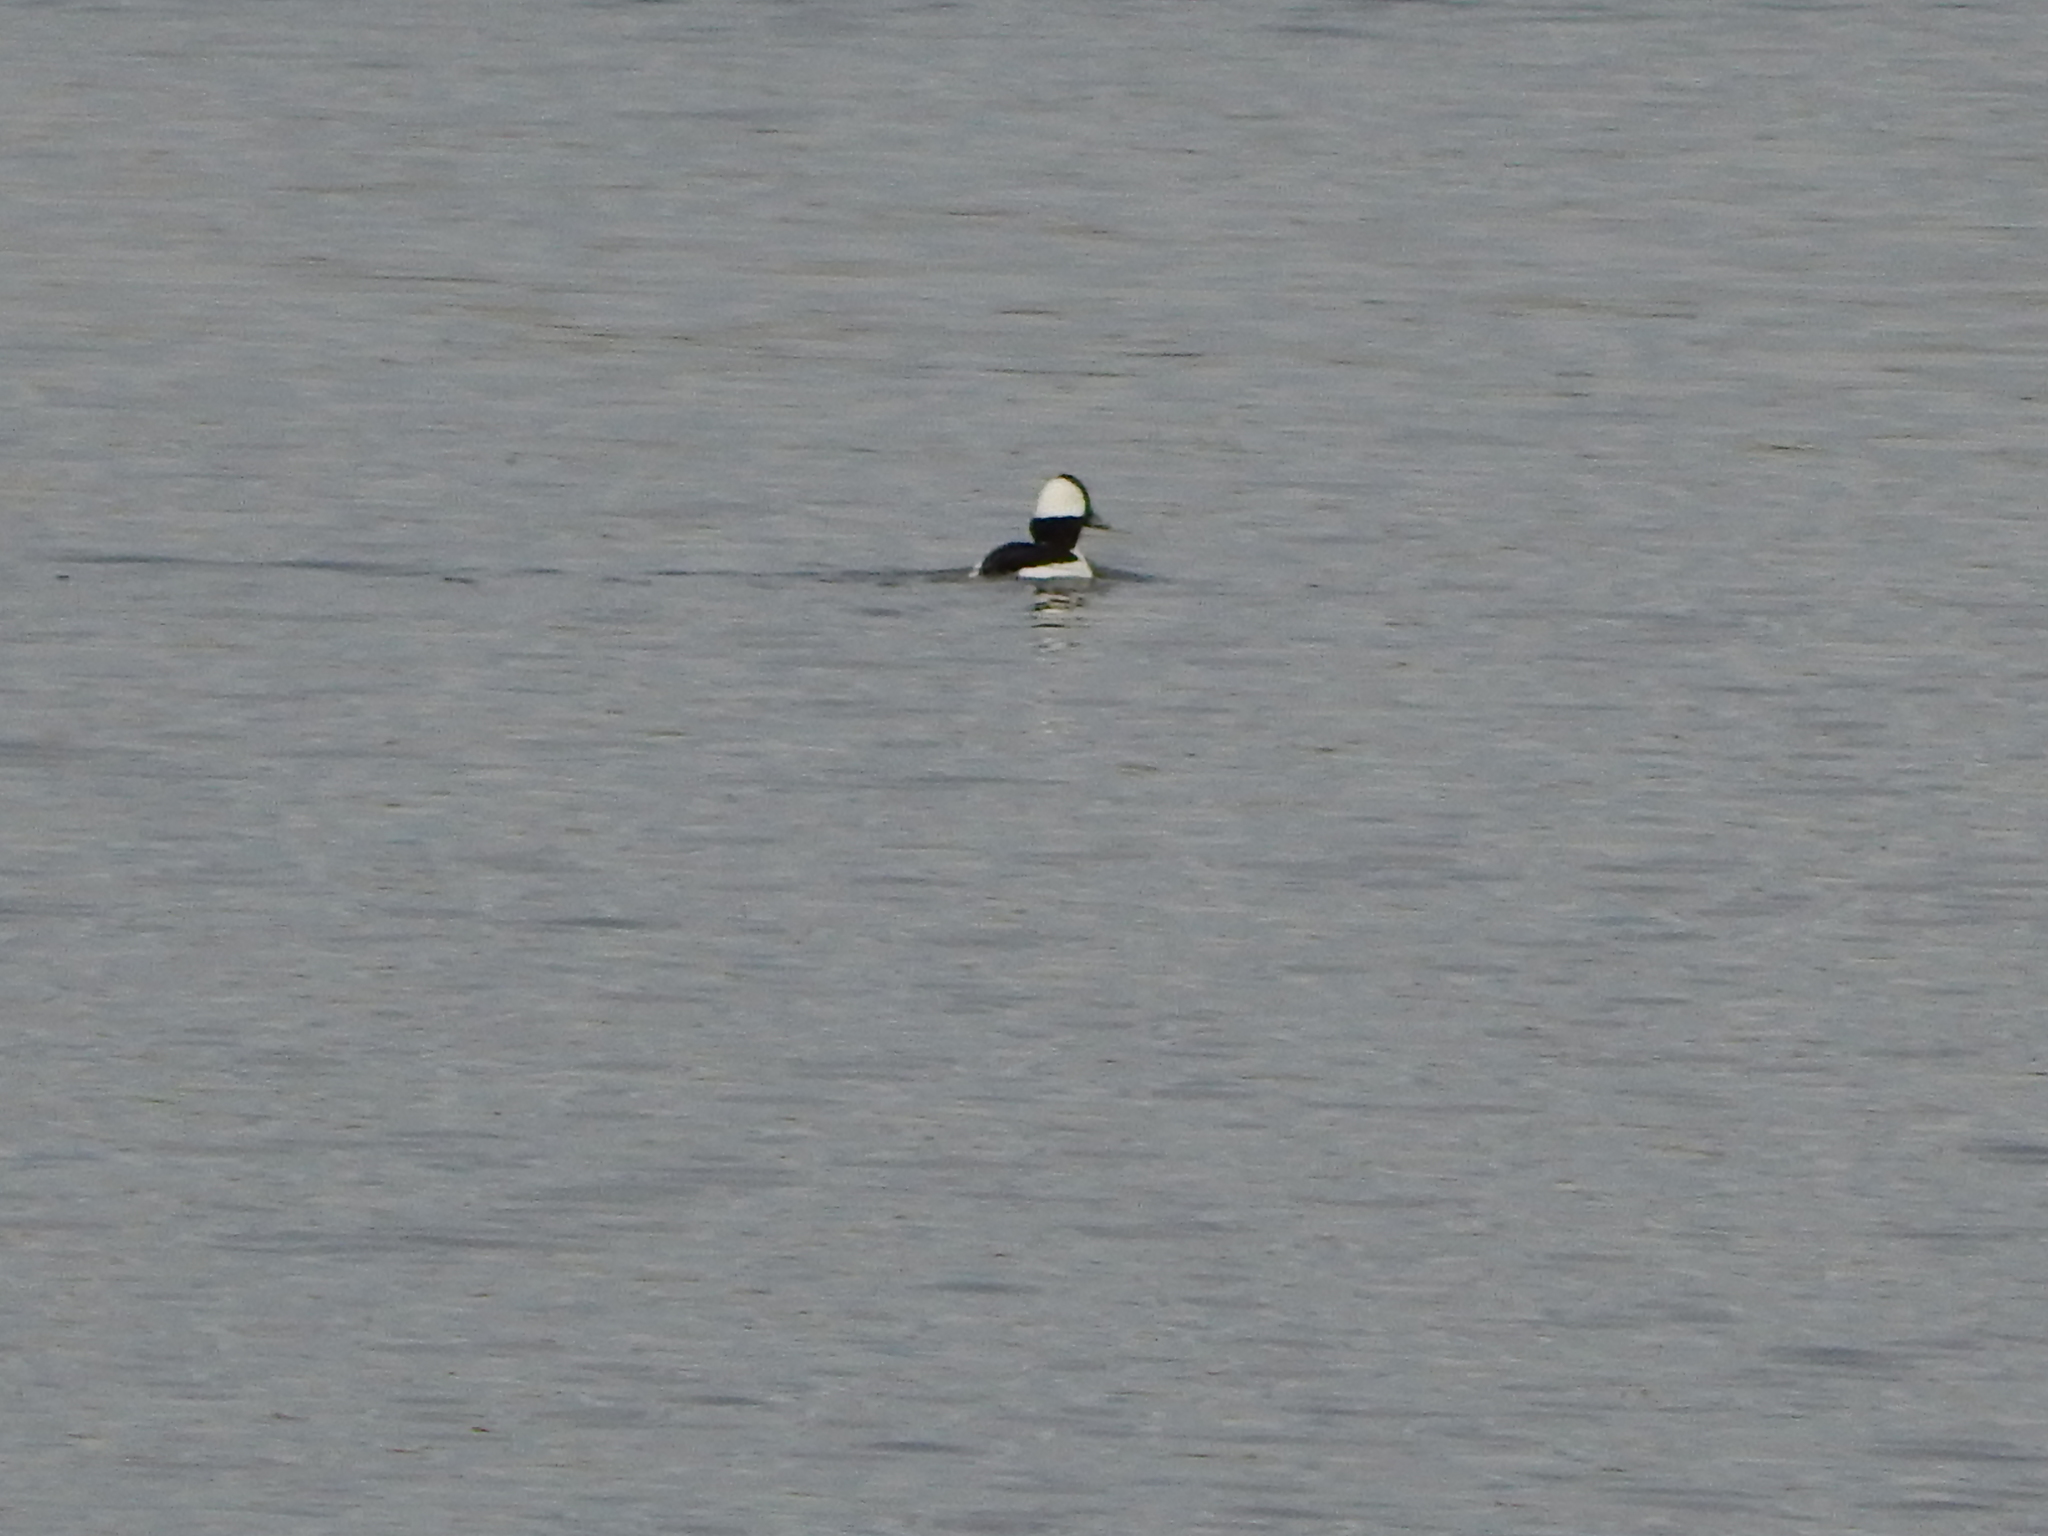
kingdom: Animalia
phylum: Chordata
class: Aves
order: Anseriformes
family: Anatidae
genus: Bucephala
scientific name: Bucephala albeola
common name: Bufflehead
